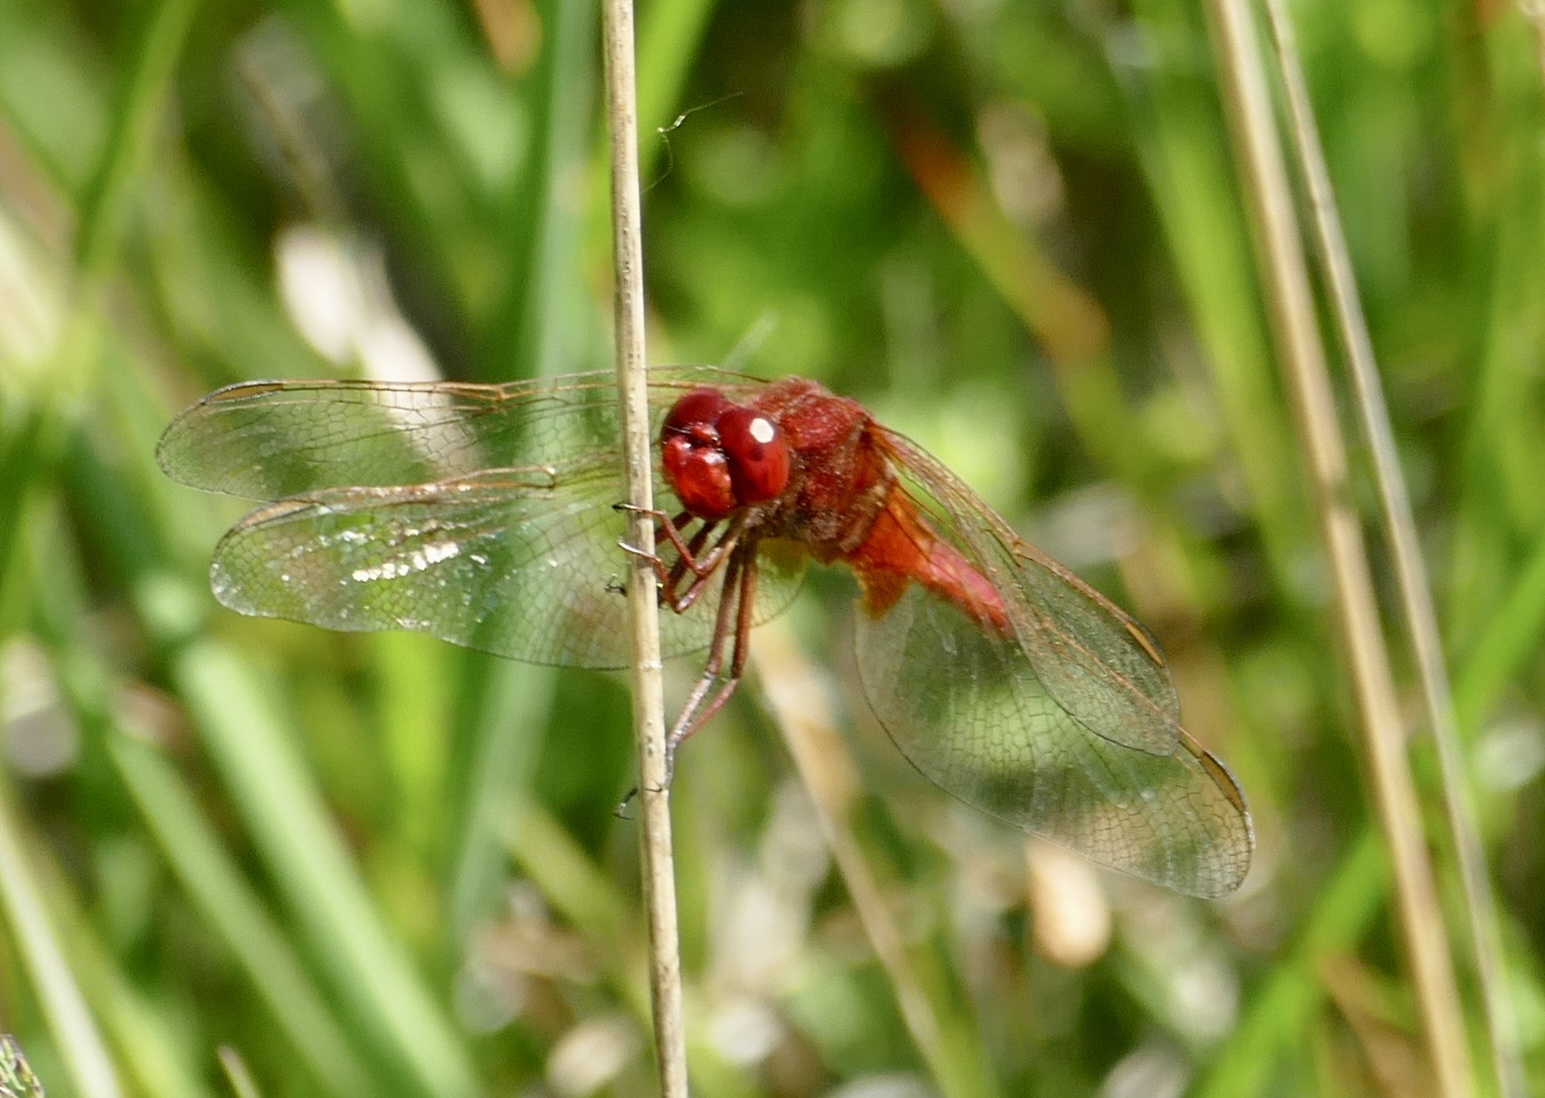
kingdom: Animalia
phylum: Arthropoda
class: Insecta
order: Odonata
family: Libellulidae
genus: Crocothemis
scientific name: Crocothemis erythraea
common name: Scarlet dragonfly
